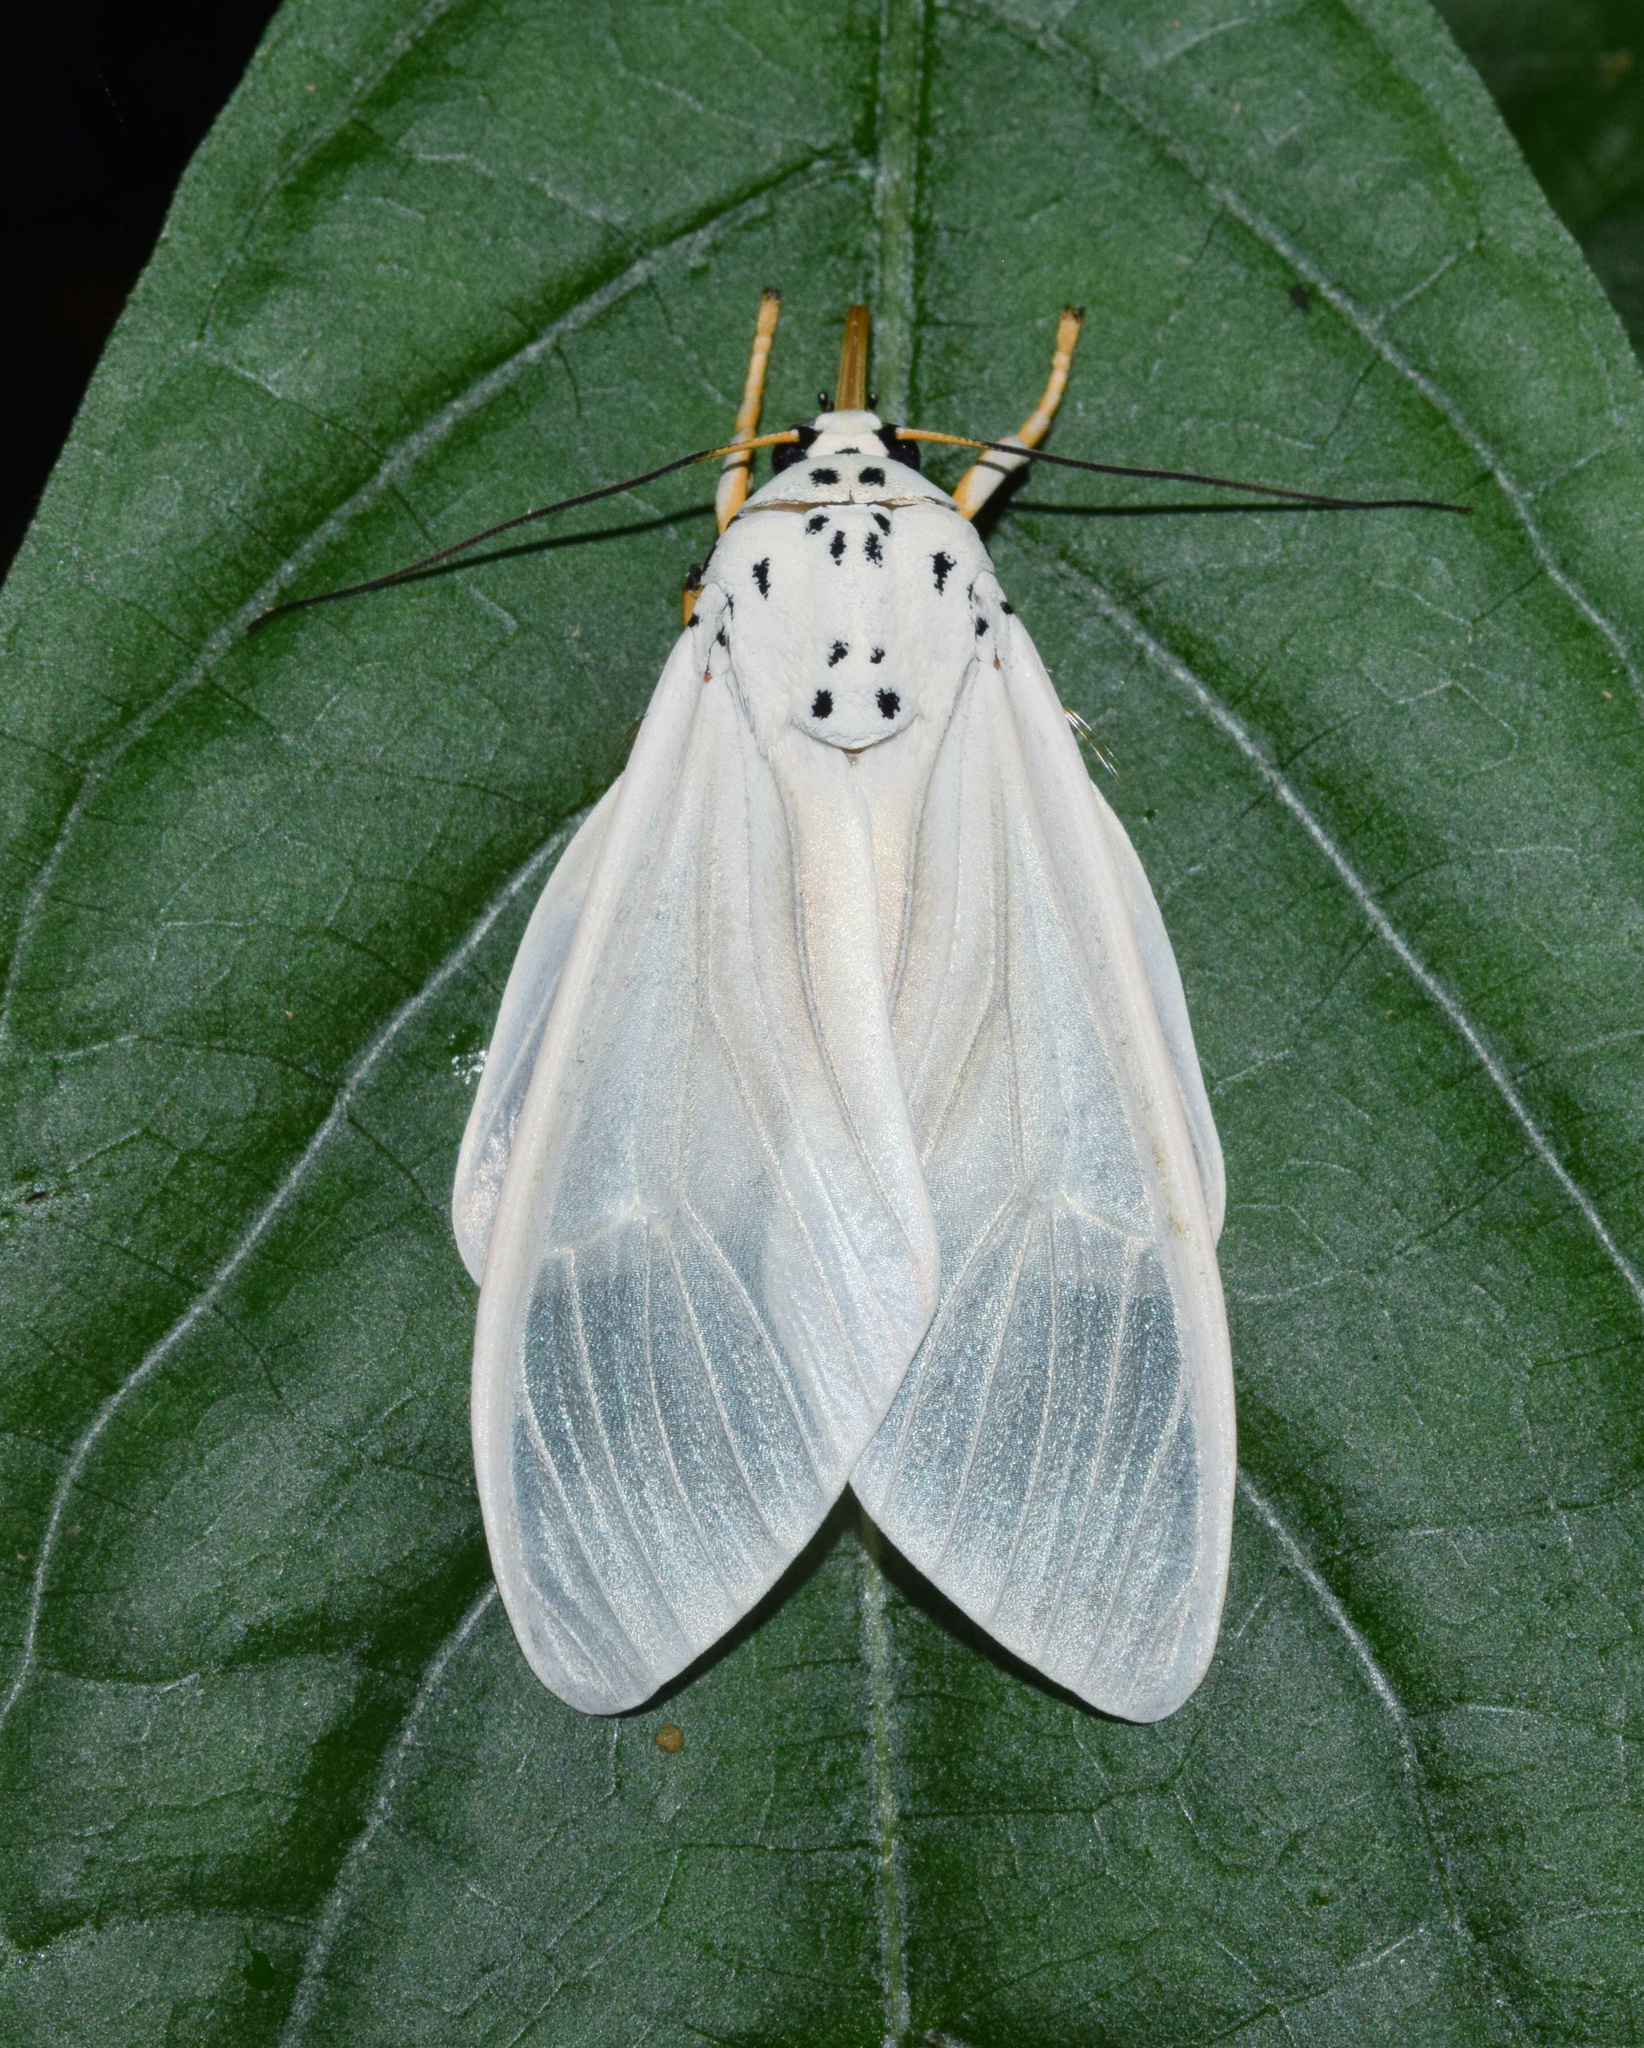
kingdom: Animalia
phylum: Arthropoda
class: Insecta
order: Lepidoptera
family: Erebidae
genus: Amerila
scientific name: Amerila bubo
